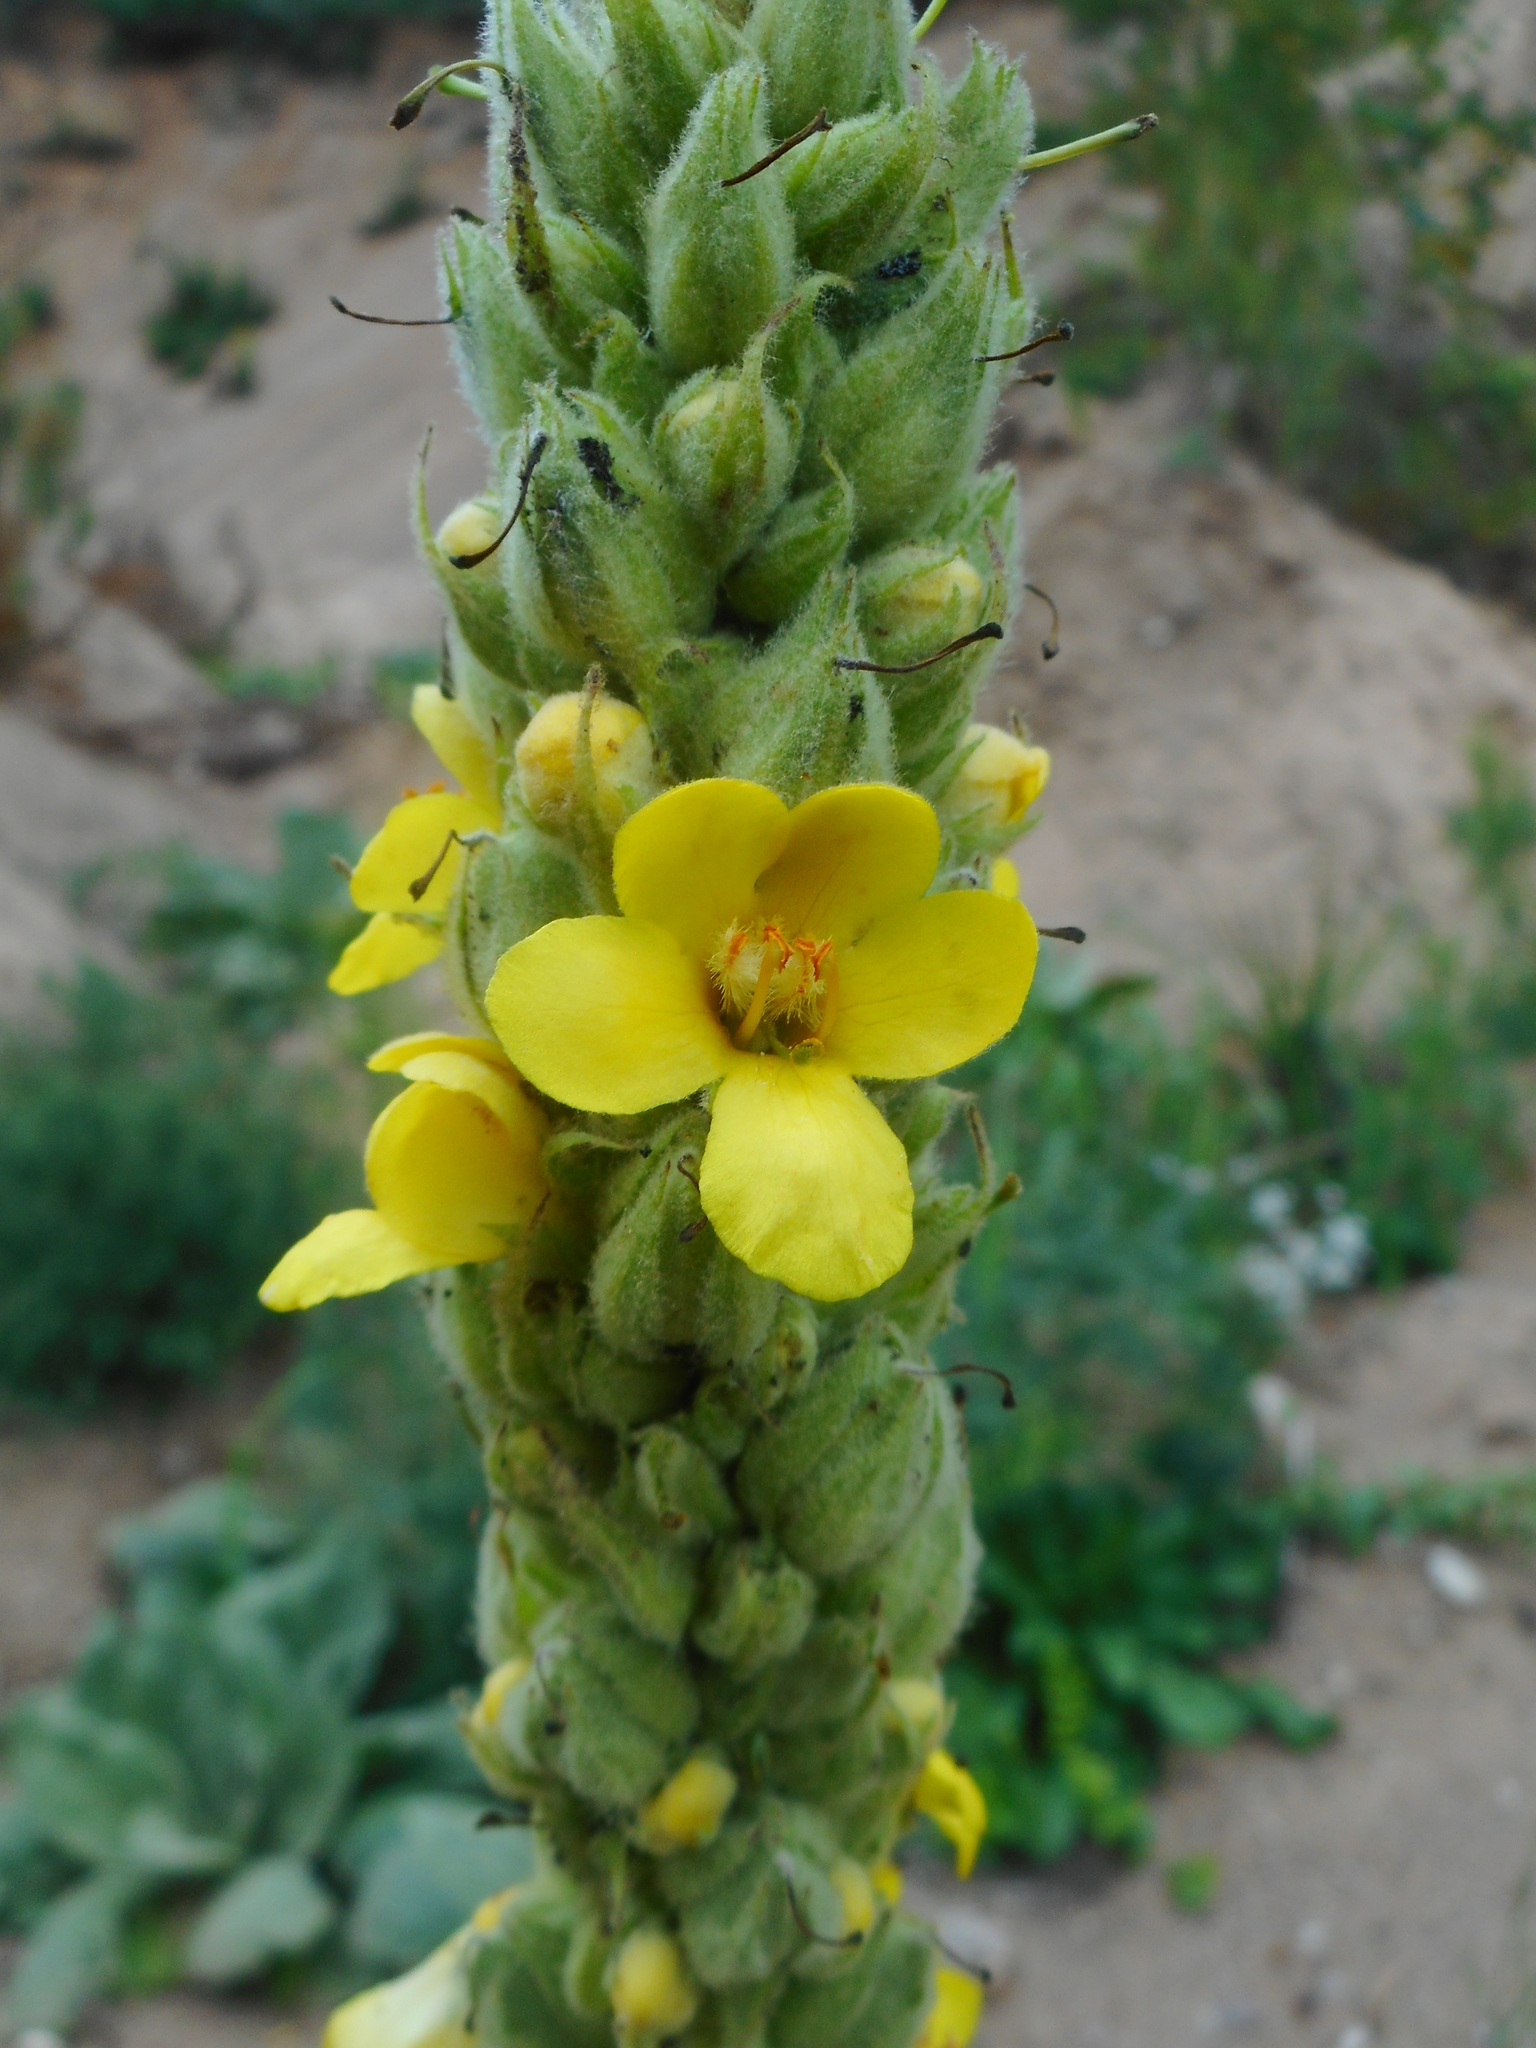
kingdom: Plantae
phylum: Tracheophyta
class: Magnoliopsida
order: Lamiales
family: Scrophulariaceae
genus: Verbascum
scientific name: Verbascum thapsus
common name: Common mullein
